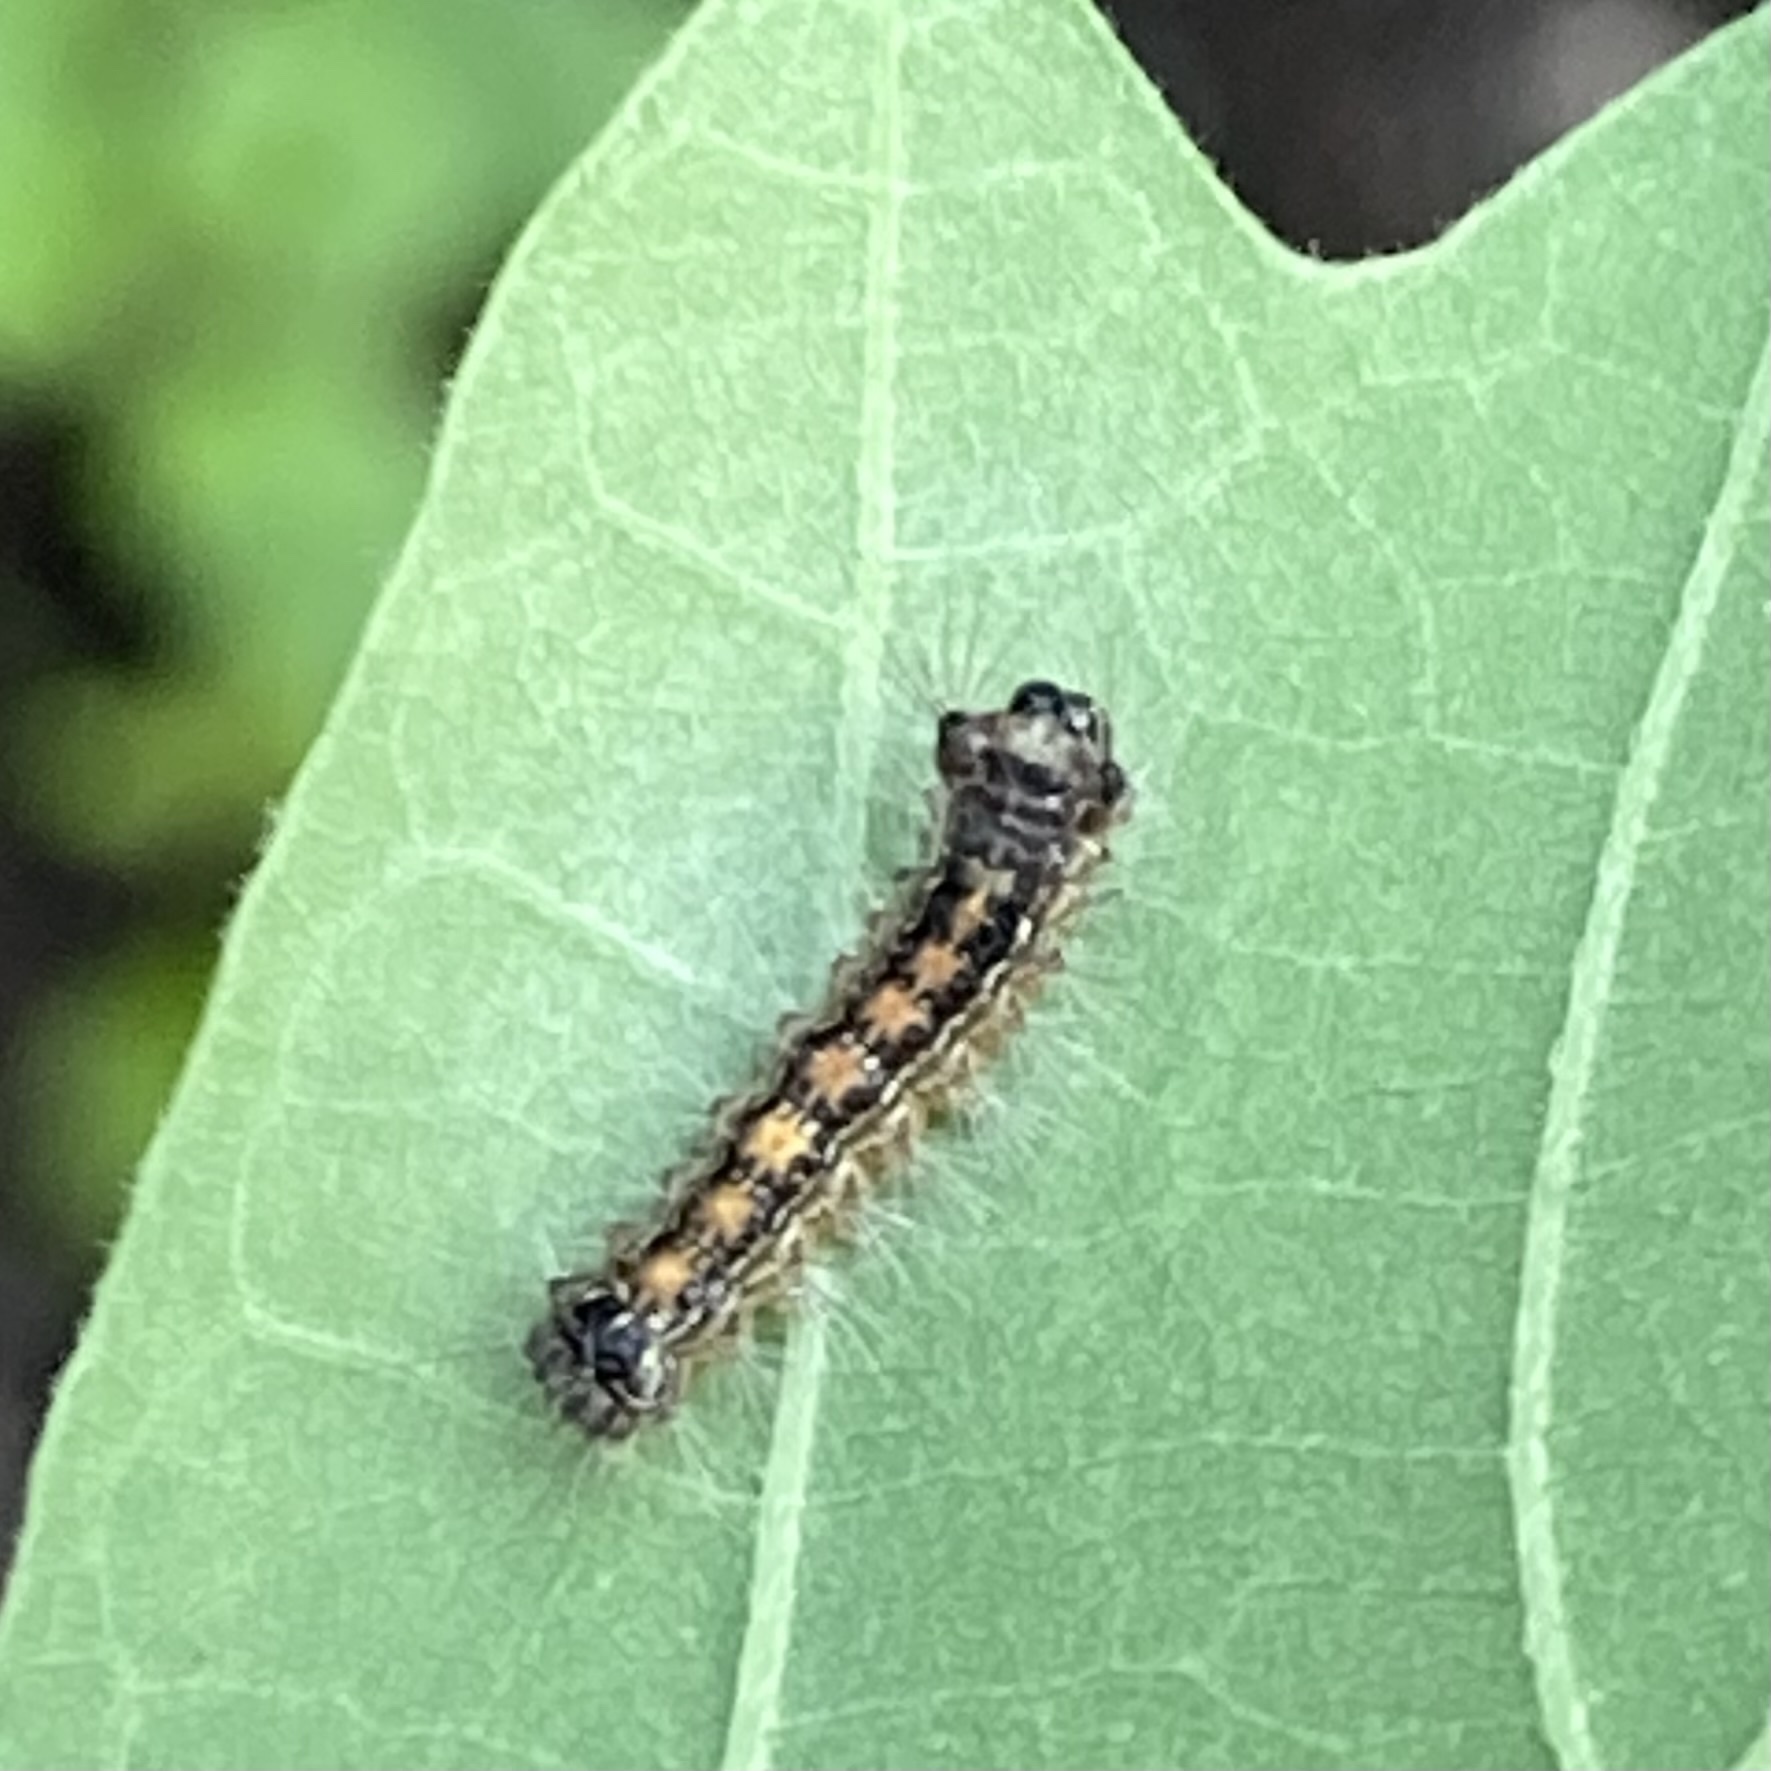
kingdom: Animalia
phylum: Arthropoda
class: Insecta
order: Lepidoptera
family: Erebidae
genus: Lymantria
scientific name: Lymantria dispar
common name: Gypsy moth
